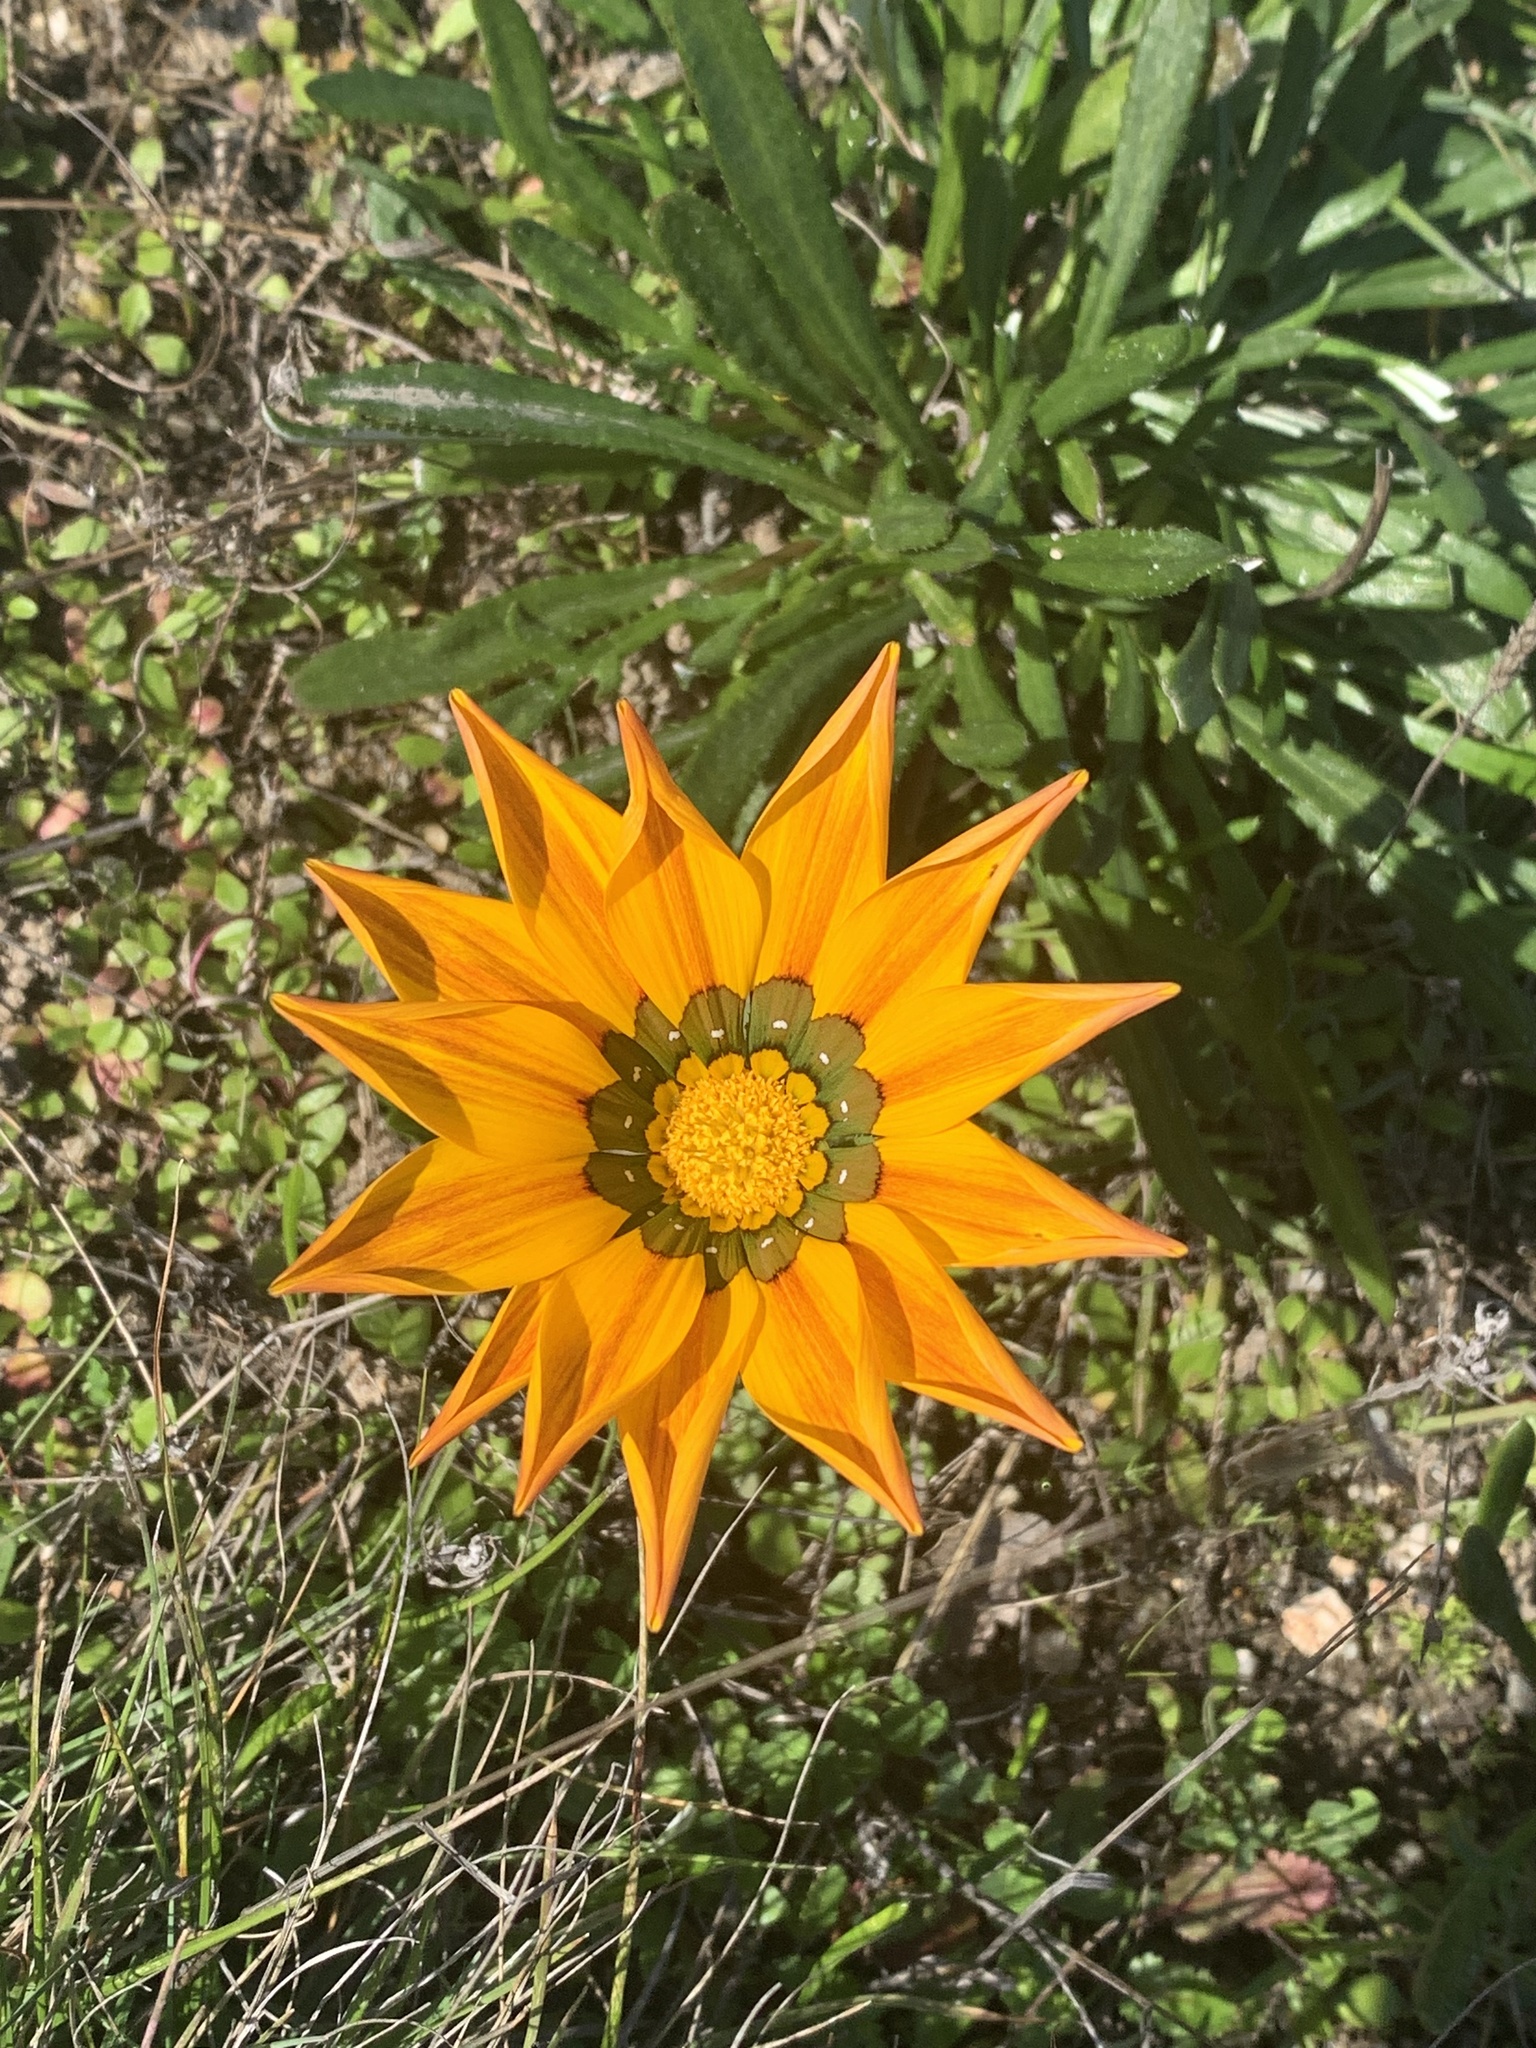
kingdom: Plantae
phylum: Tracheophyta
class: Magnoliopsida
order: Asterales
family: Asteraceae
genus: Gazania
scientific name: Gazania linearis
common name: Treasureflower
